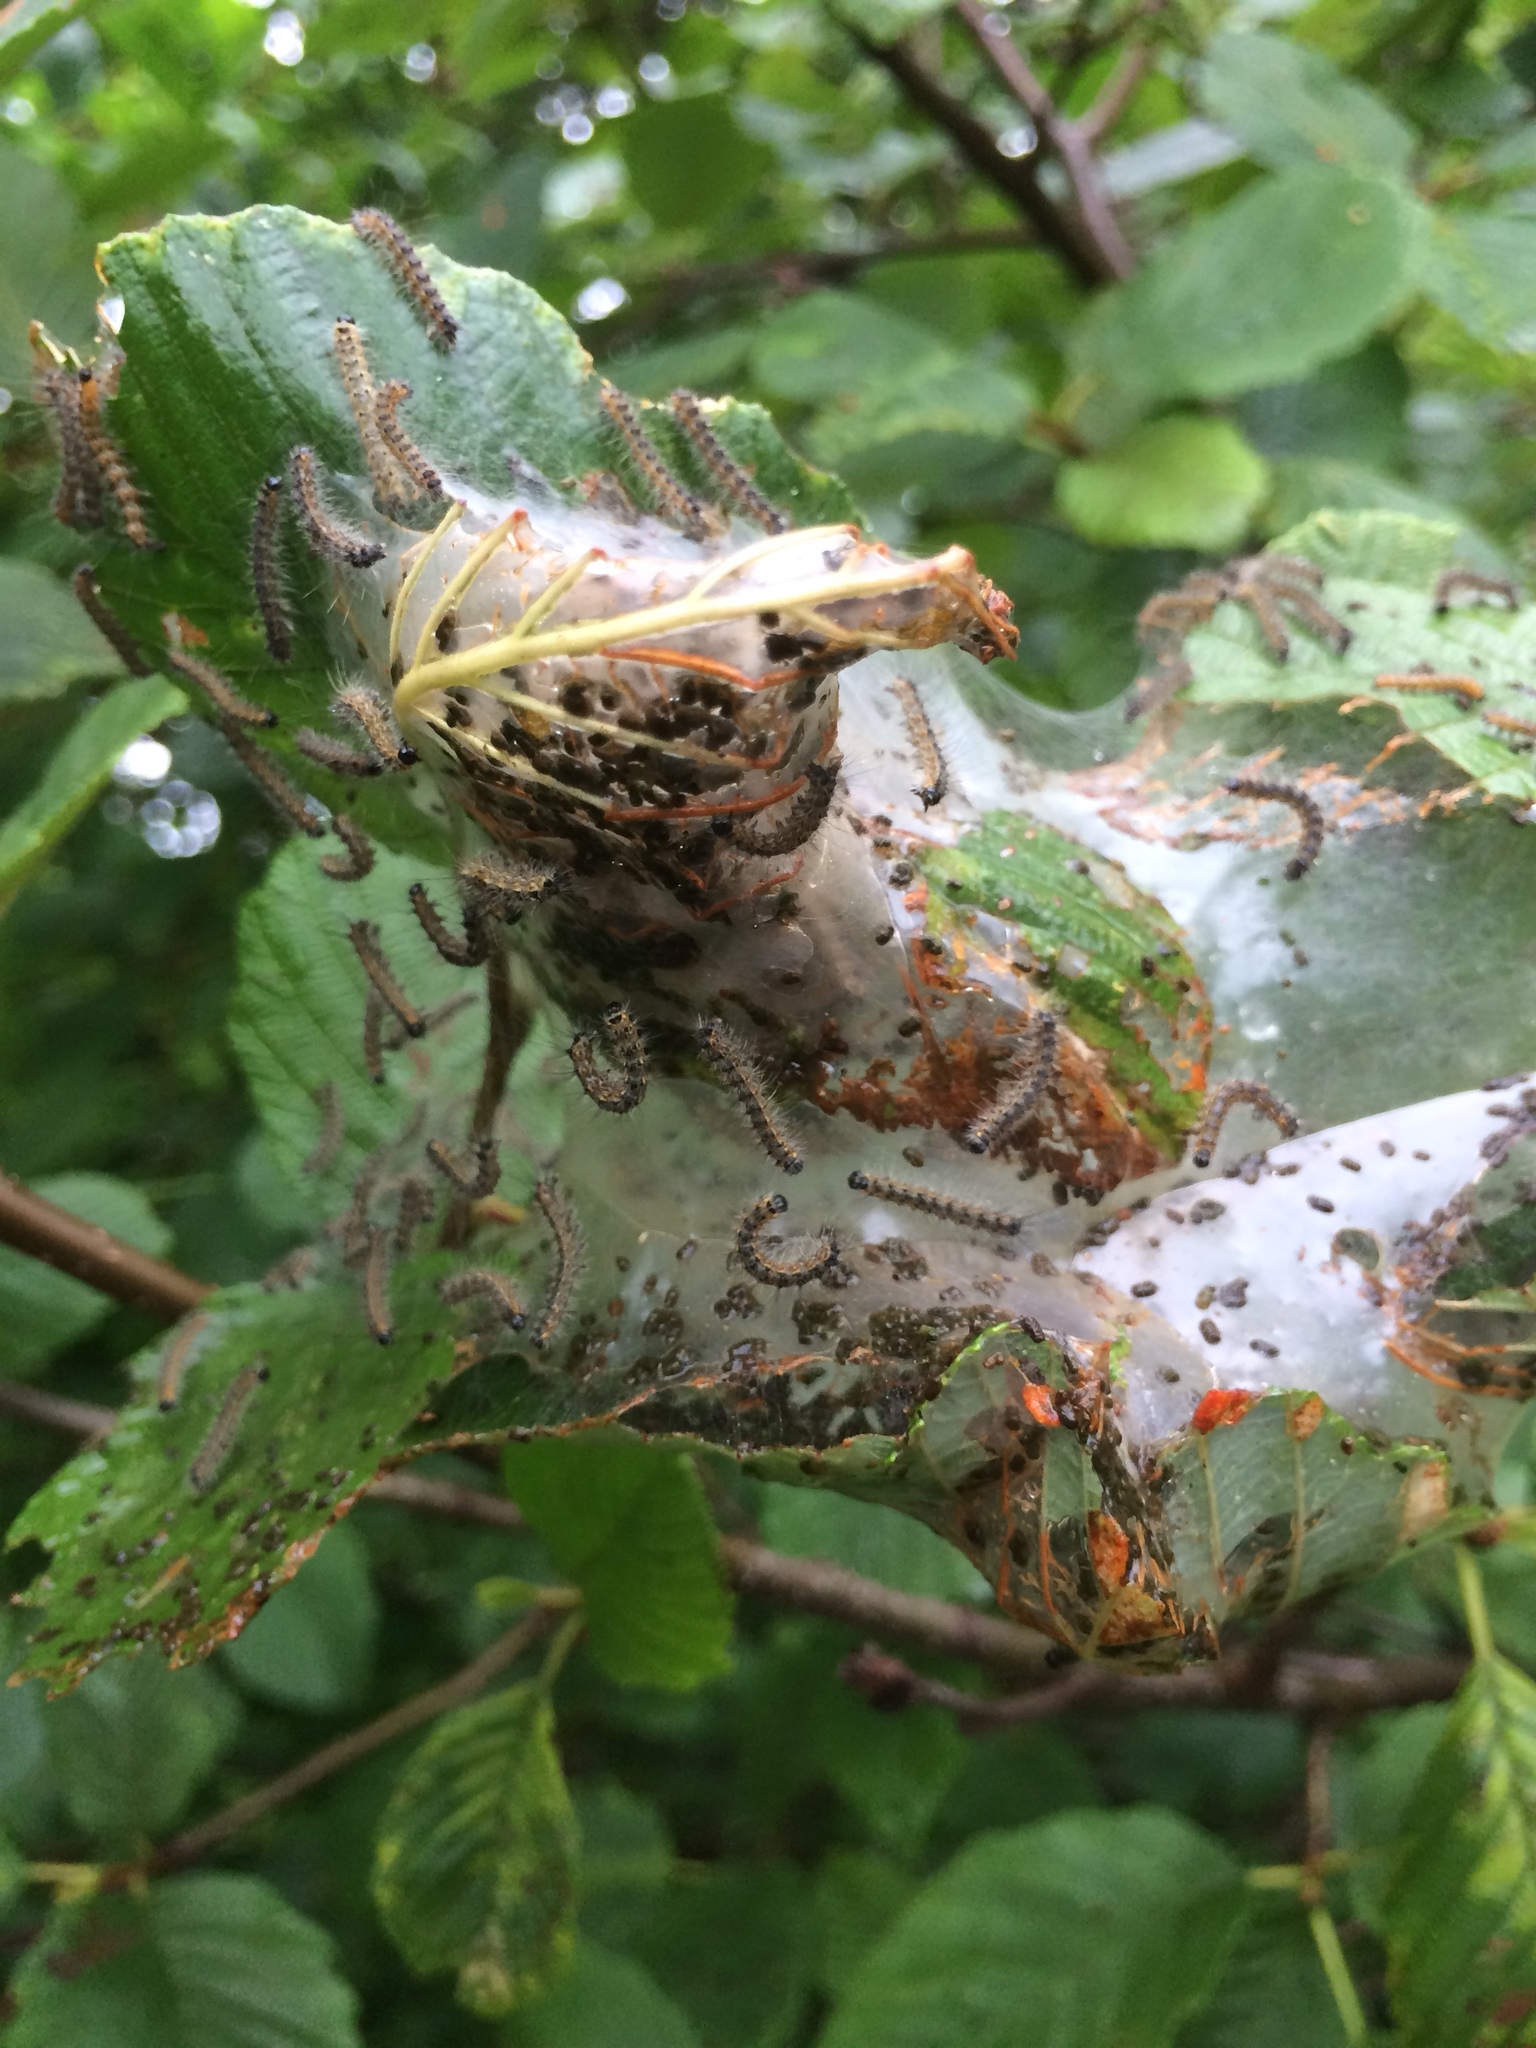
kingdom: Animalia
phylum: Arthropoda
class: Insecta
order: Lepidoptera
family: Erebidae
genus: Hyphantria
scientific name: Hyphantria cunea
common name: American white moth
